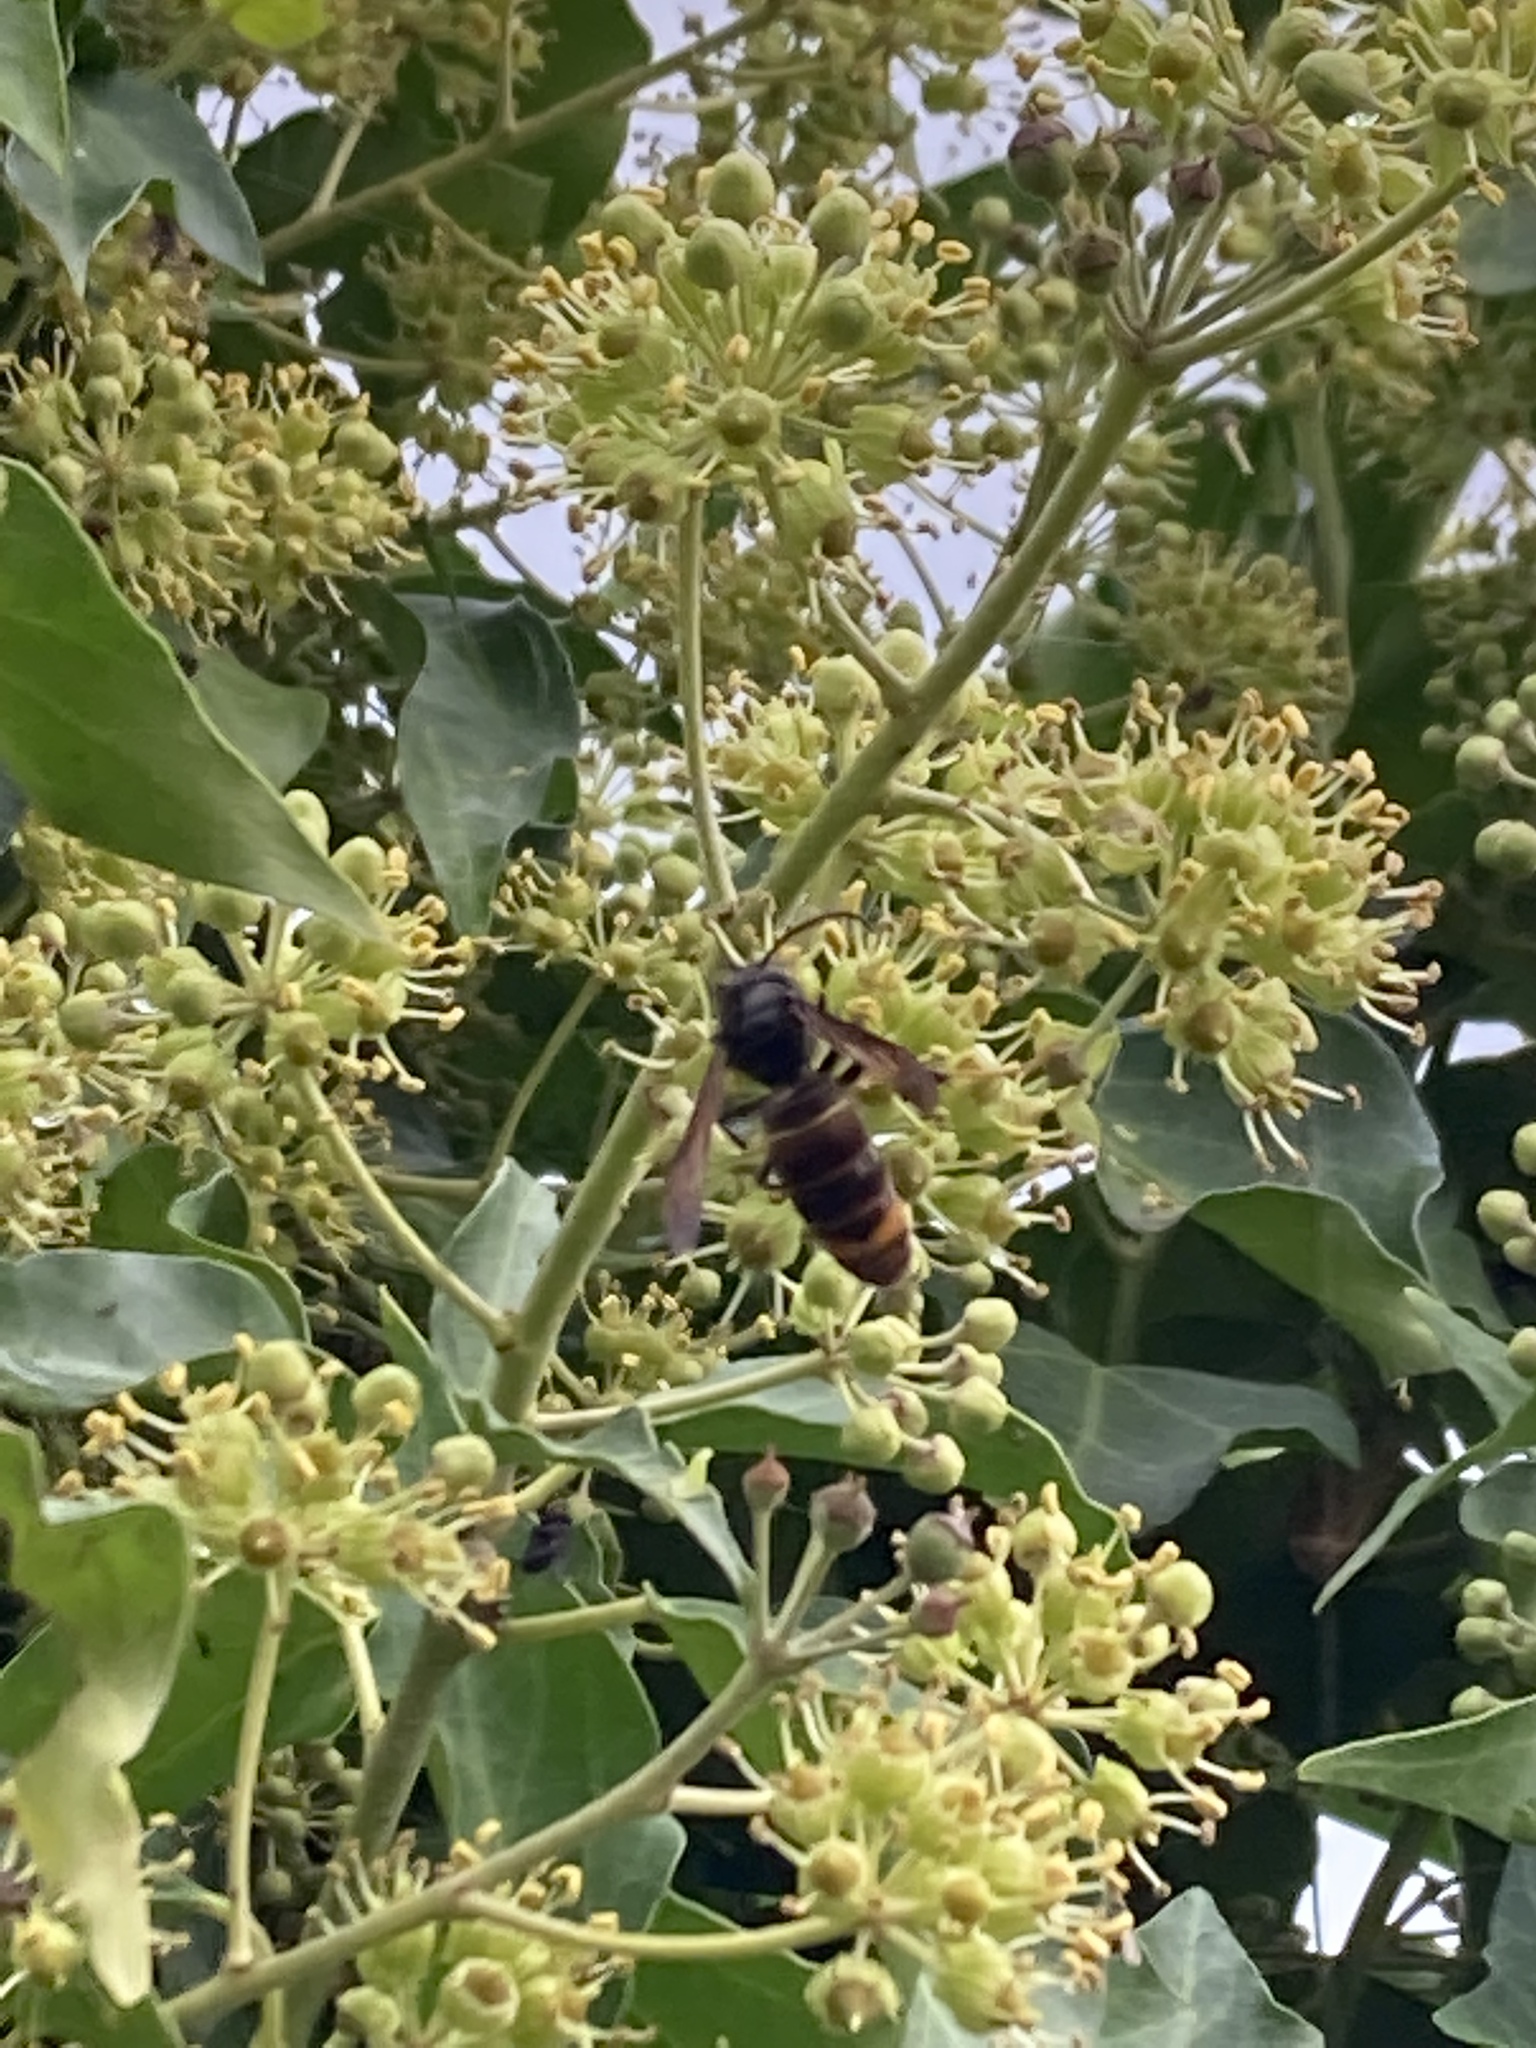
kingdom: Animalia
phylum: Arthropoda
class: Insecta
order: Hymenoptera
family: Vespidae
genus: Vespa
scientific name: Vespa velutina
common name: Asian hornet
